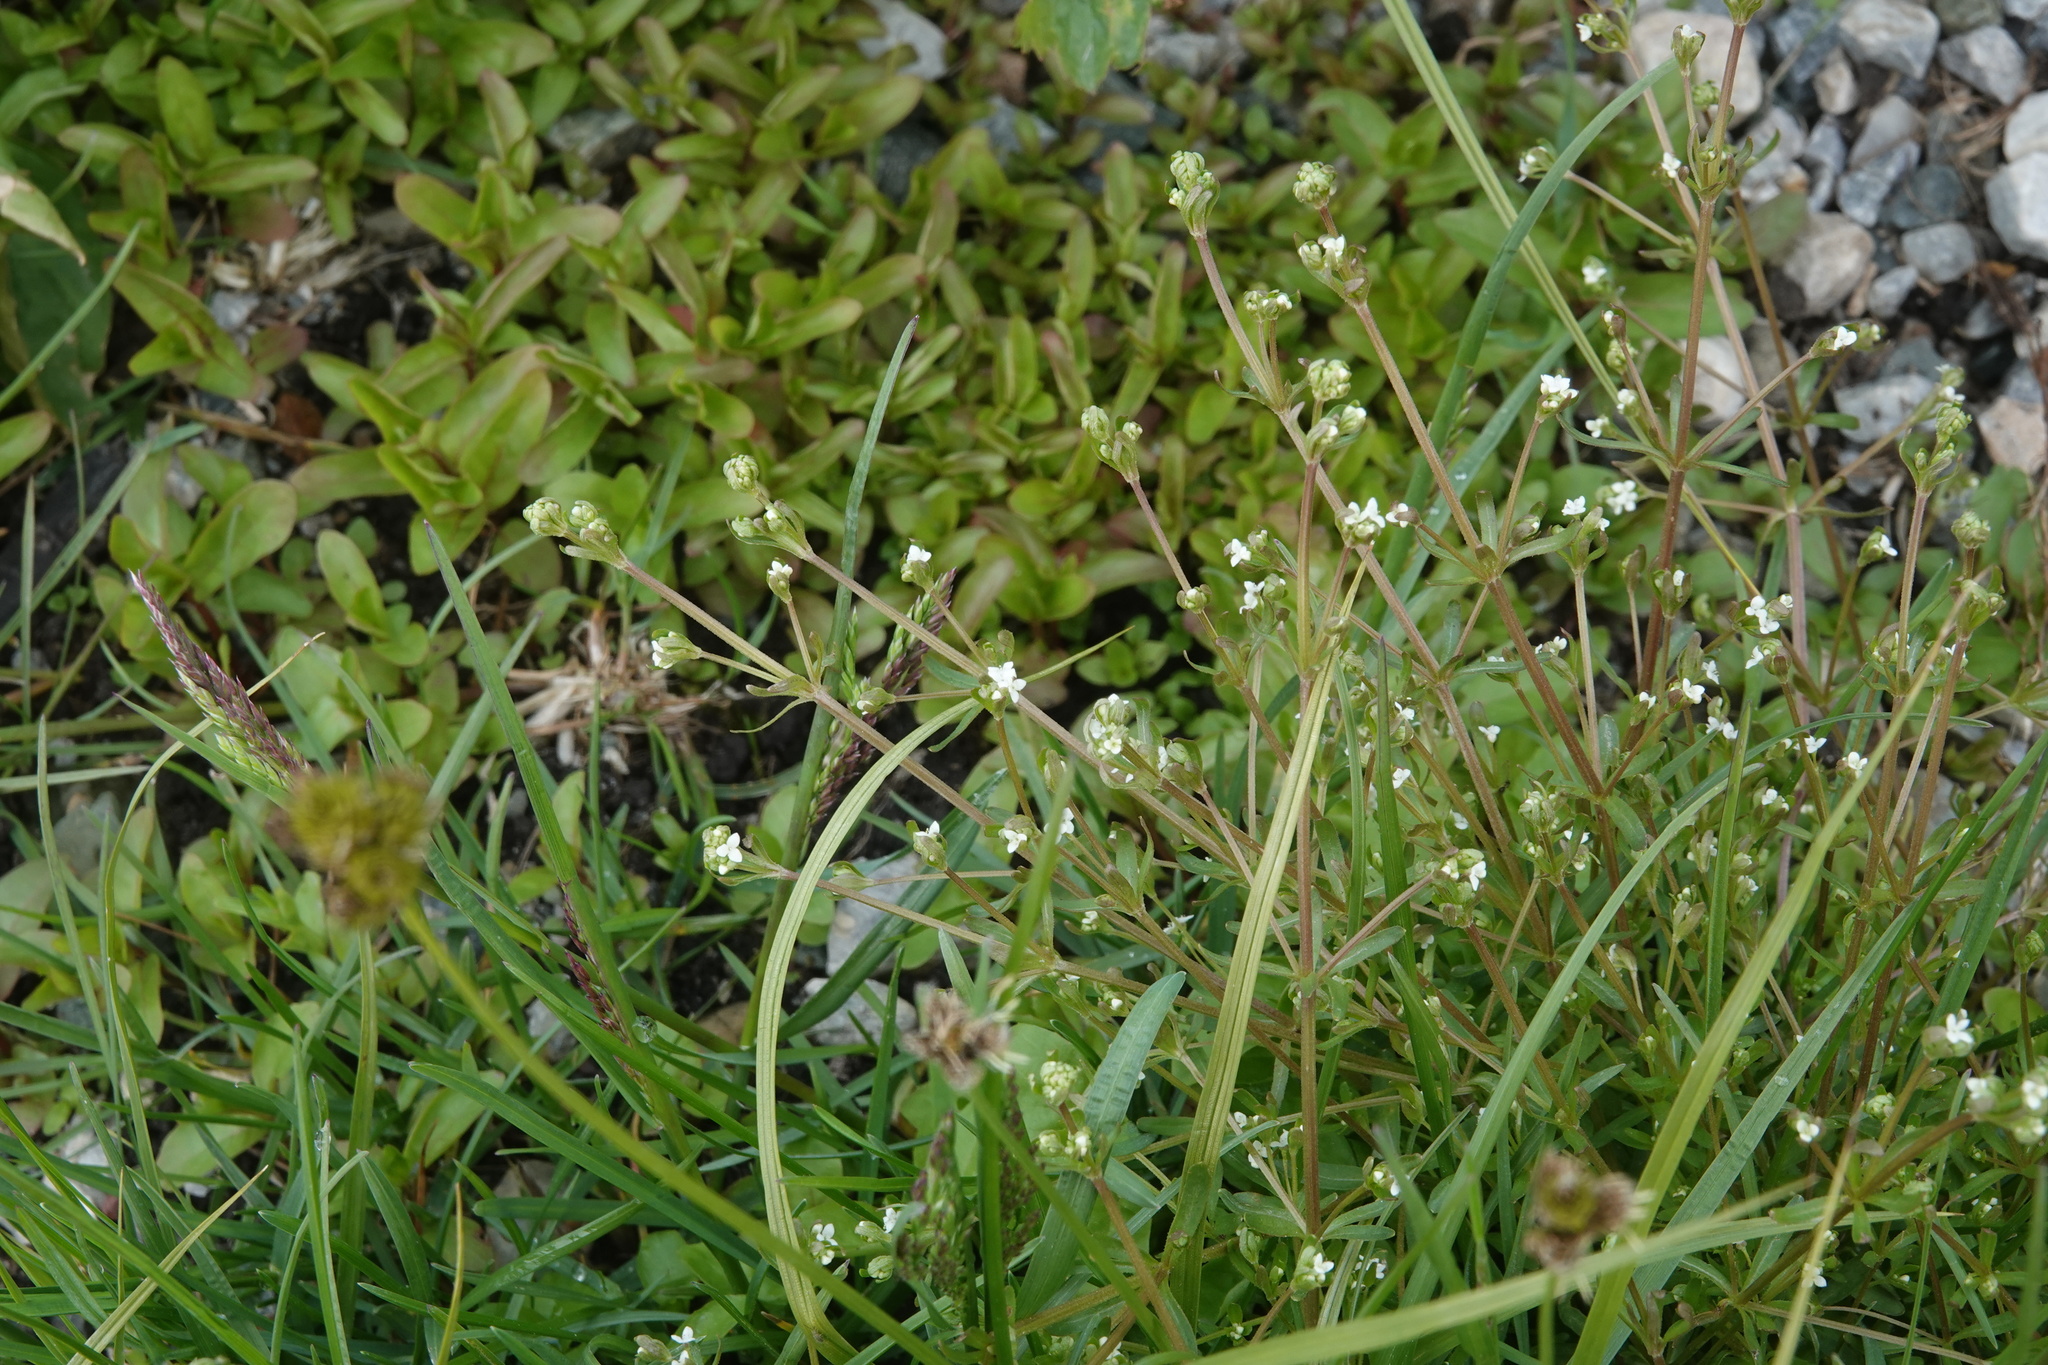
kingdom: Plantae
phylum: Tracheophyta
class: Magnoliopsida
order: Gentianales
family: Rubiaceae
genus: Galium
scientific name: Galium trifidum
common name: Small bedstraw
